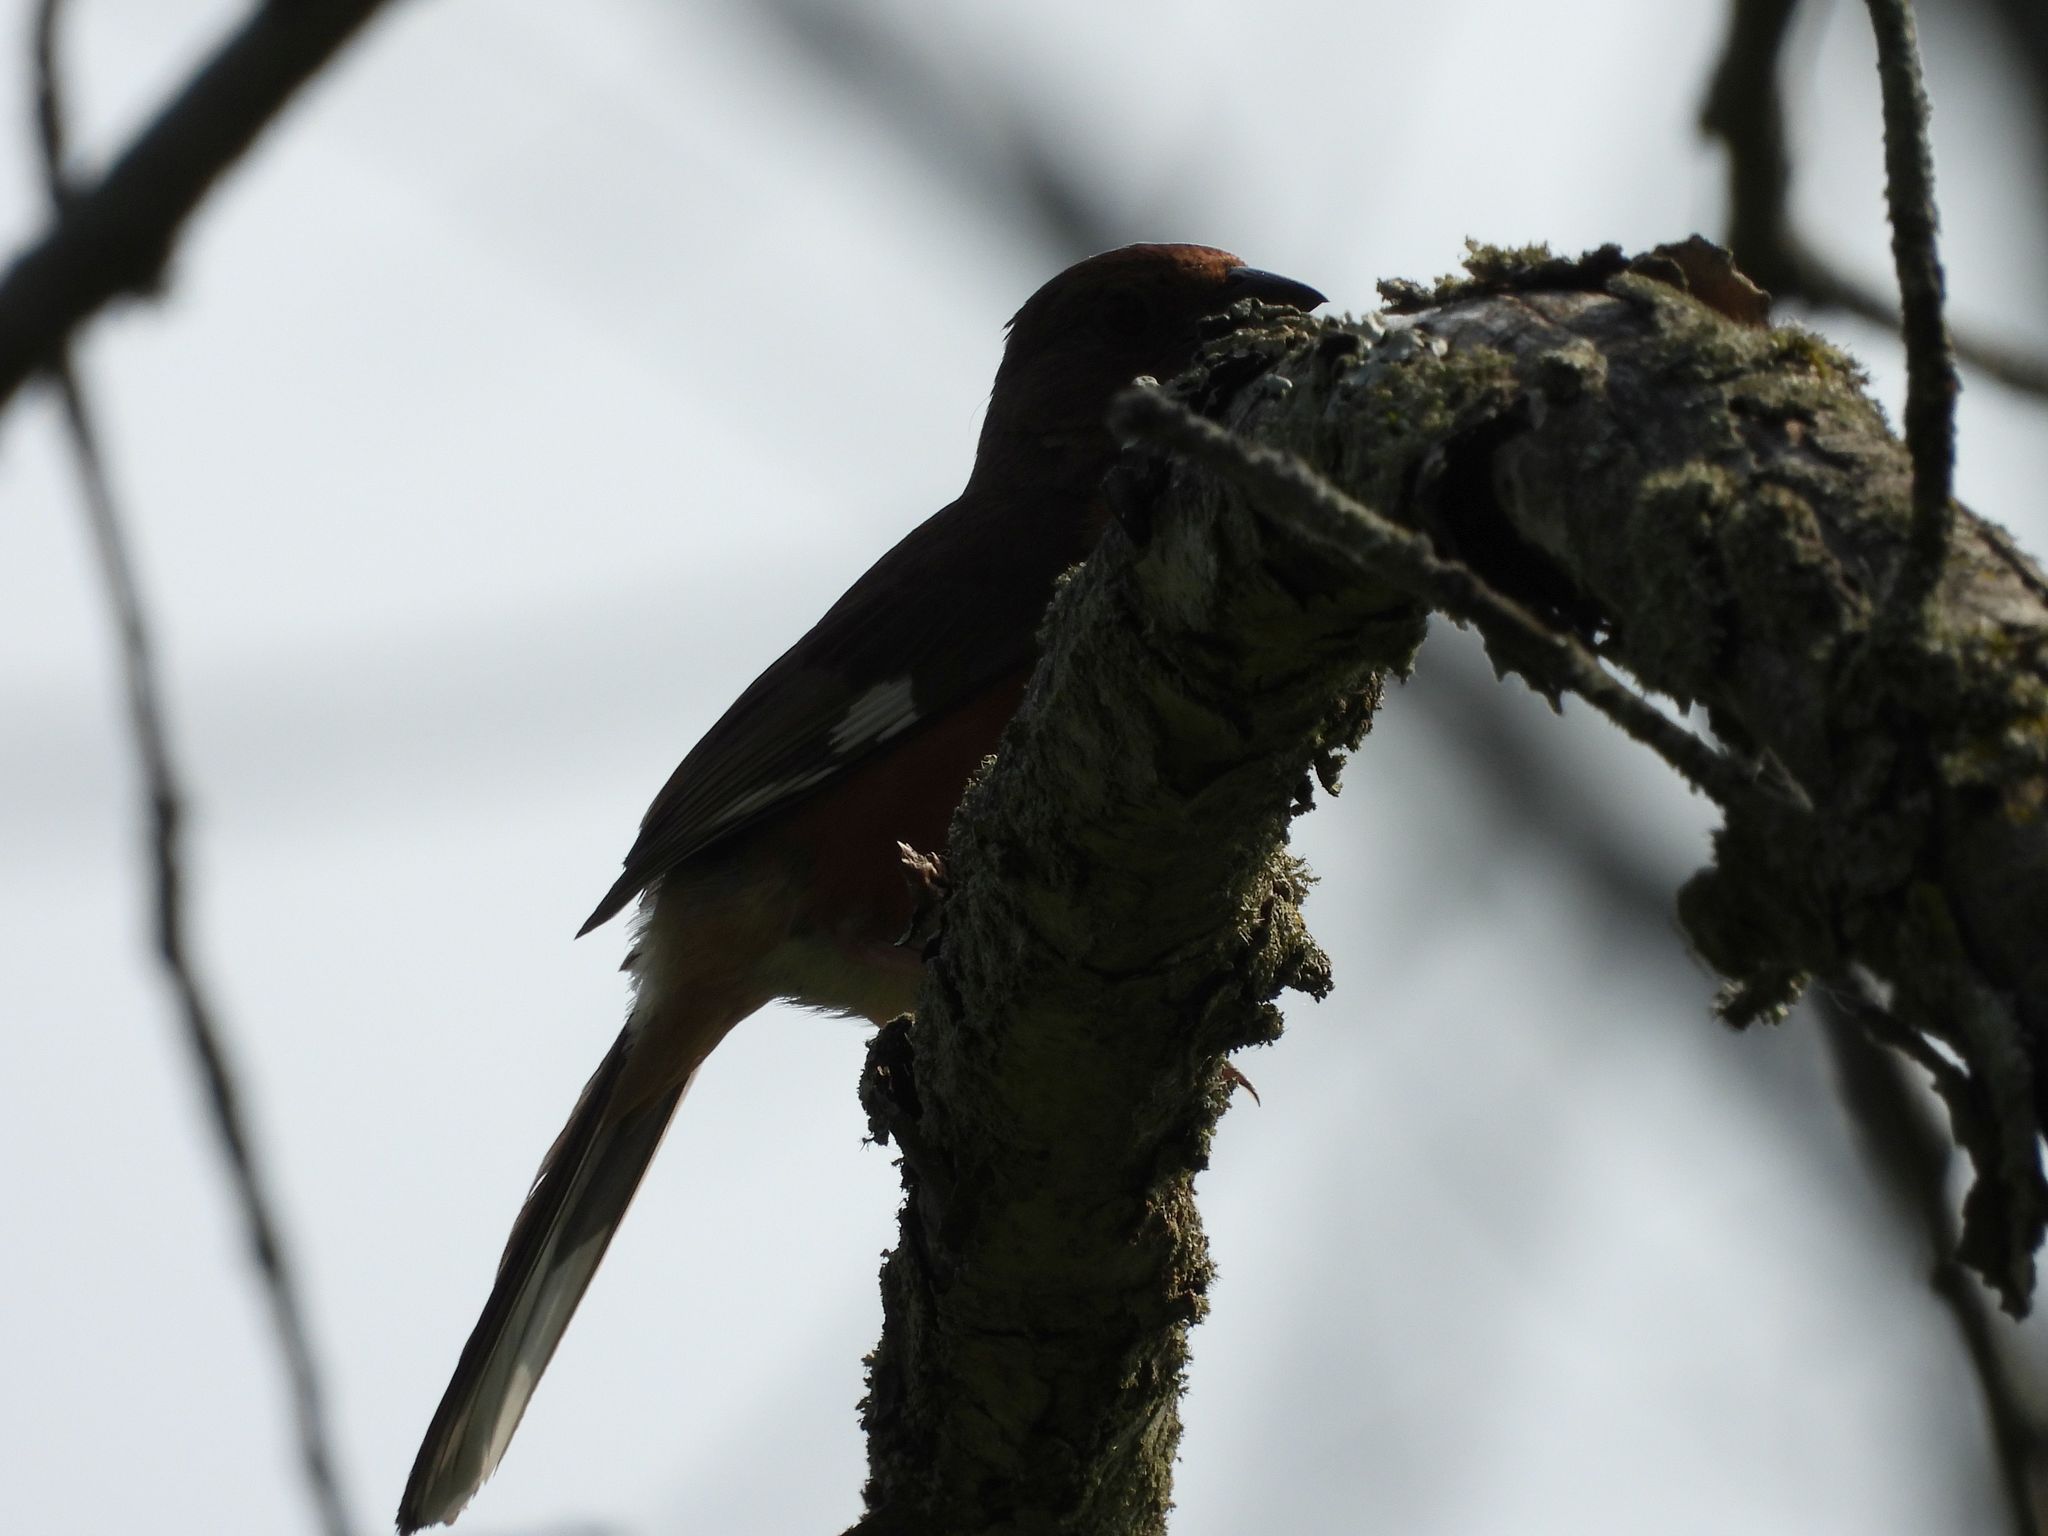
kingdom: Animalia
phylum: Chordata
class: Aves
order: Passeriformes
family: Passerellidae
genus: Pipilo
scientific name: Pipilo erythrophthalmus
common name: Eastern towhee
